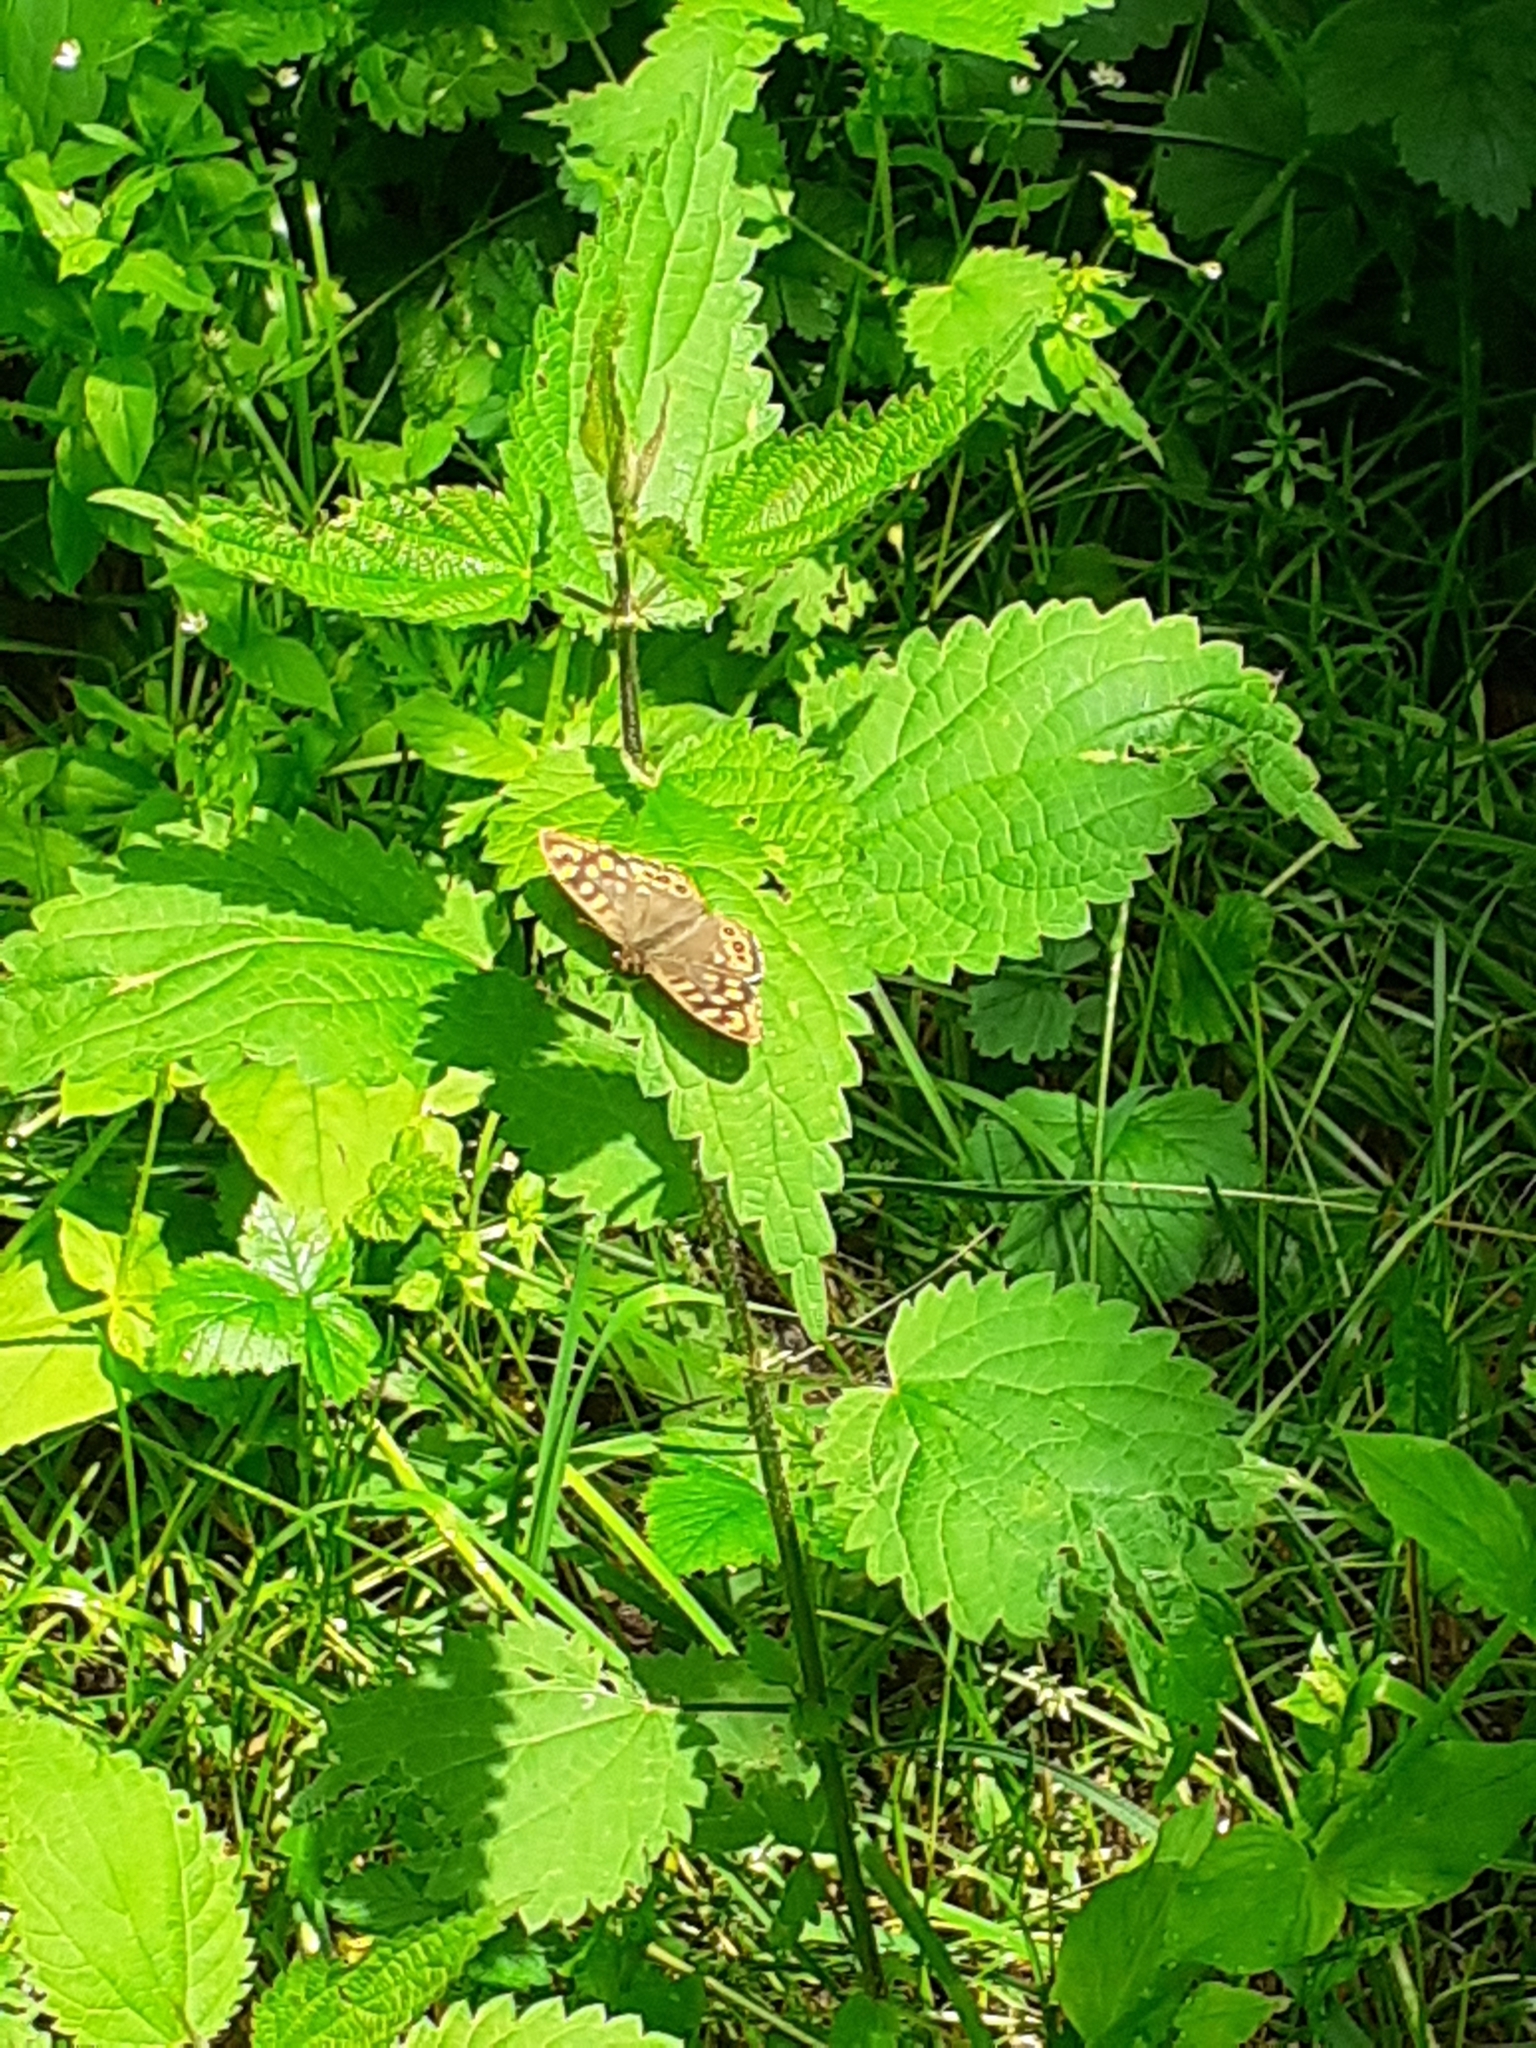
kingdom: Animalia
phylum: Arthropoda
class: Insecta
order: Lepidoptera
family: Nymphalidae
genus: Pararge
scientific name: Pararge aegeria
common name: Speckled wood
